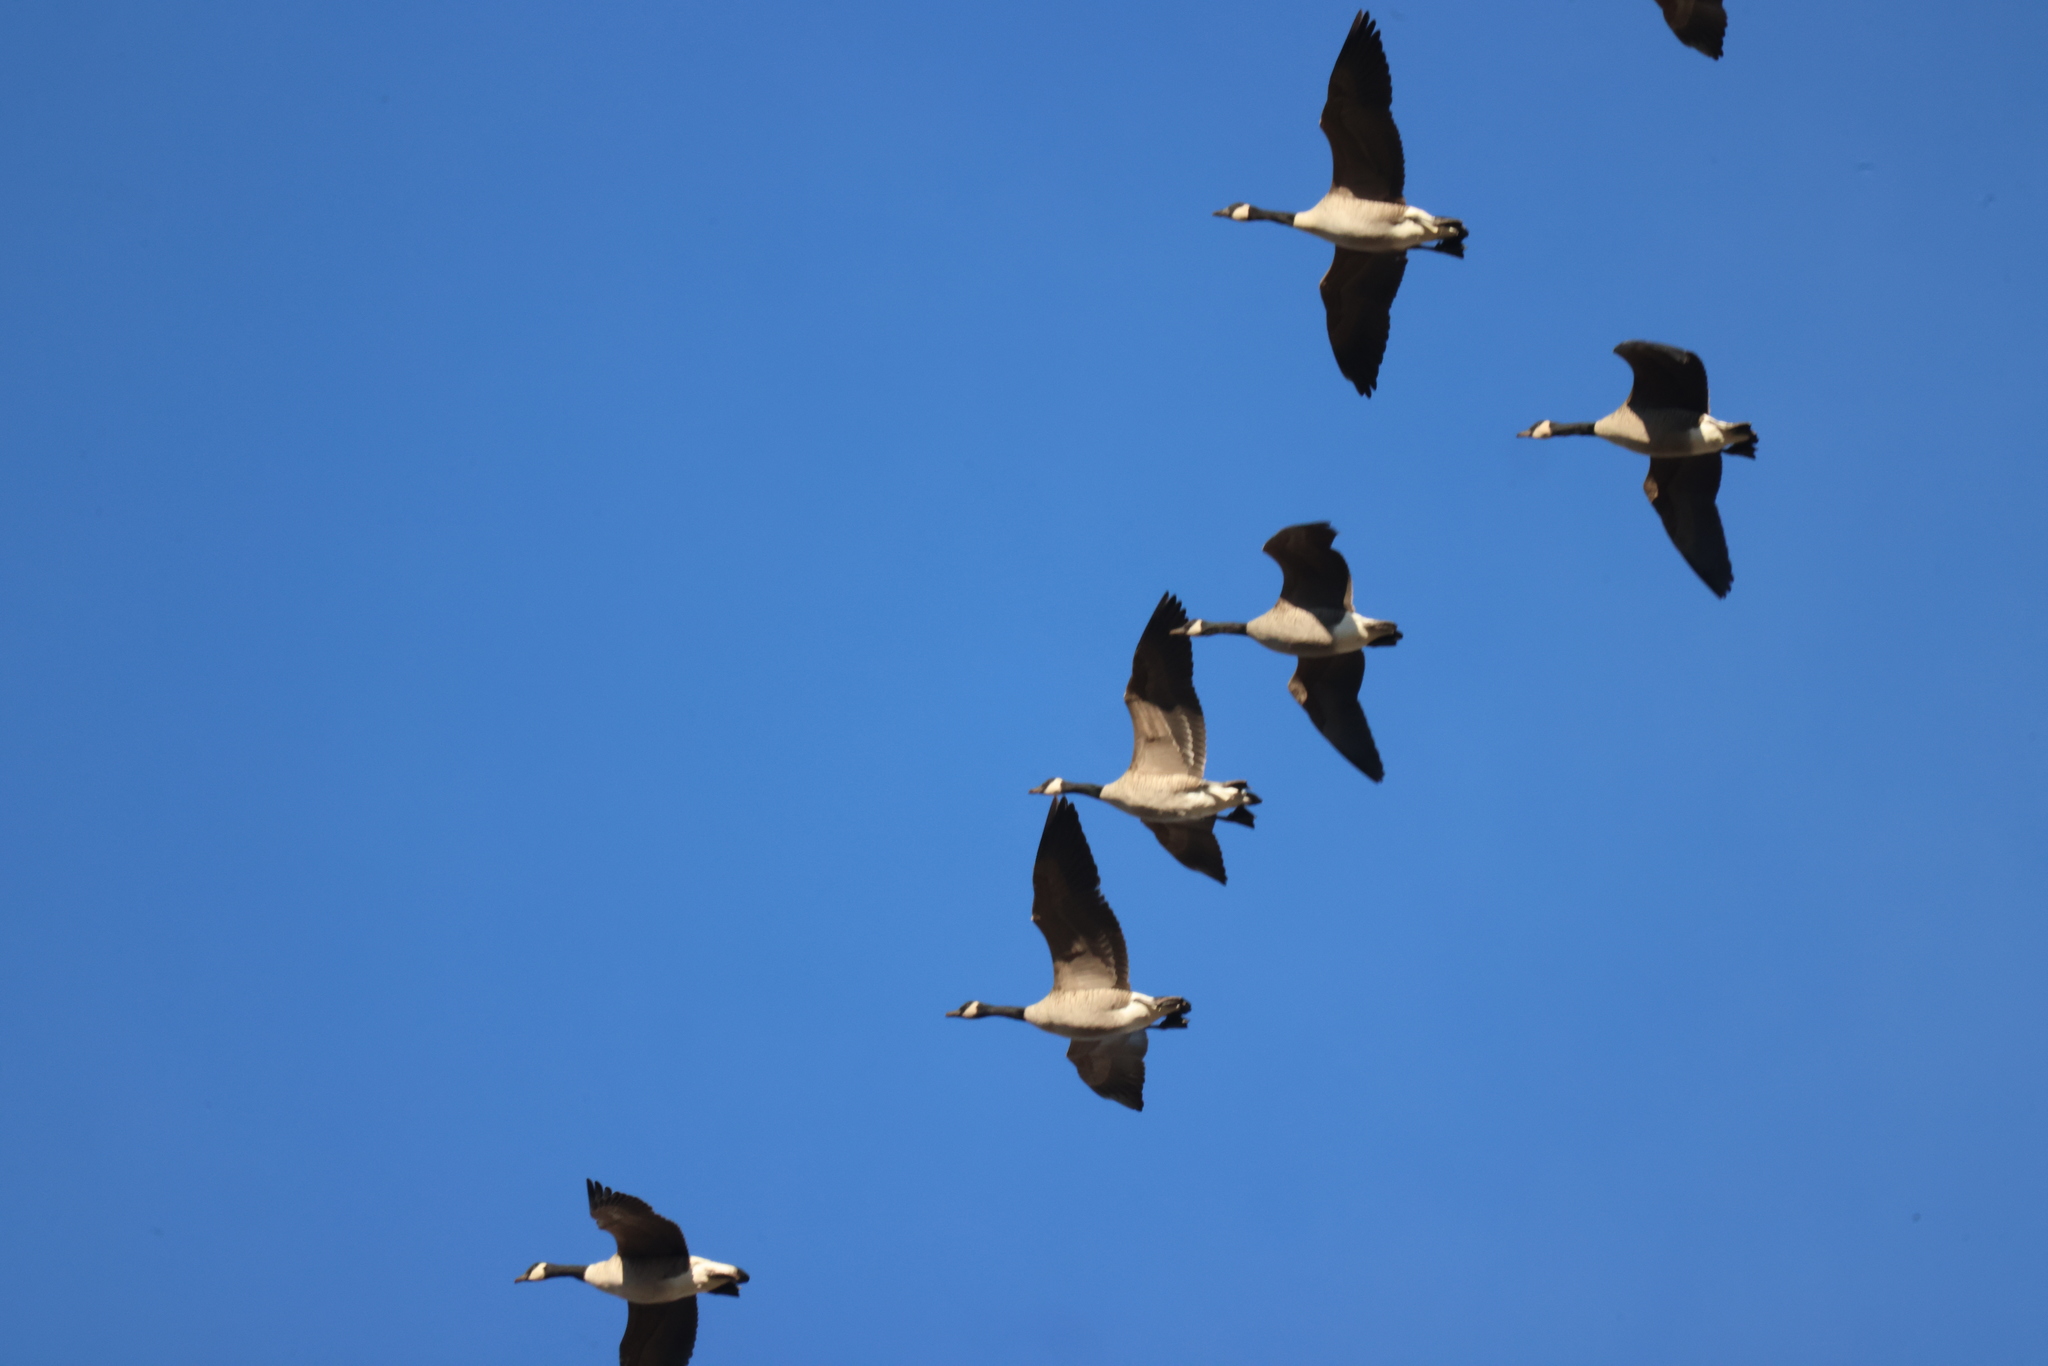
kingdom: Animalia
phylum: Chordata
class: Aves
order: Anseriformes
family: Anatidae
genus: Branta
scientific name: Branta canadensis
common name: Canada goose
